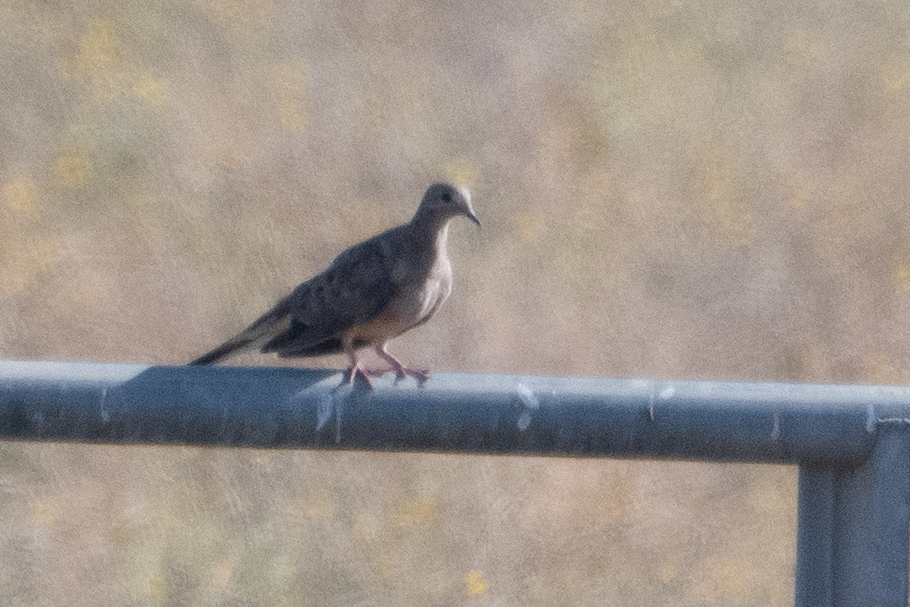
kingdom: Animalia
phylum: Chordata
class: Aves
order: Columbiformes
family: Columbidae
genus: Zenaida
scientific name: Zenaida macroura
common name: Mourning dove
